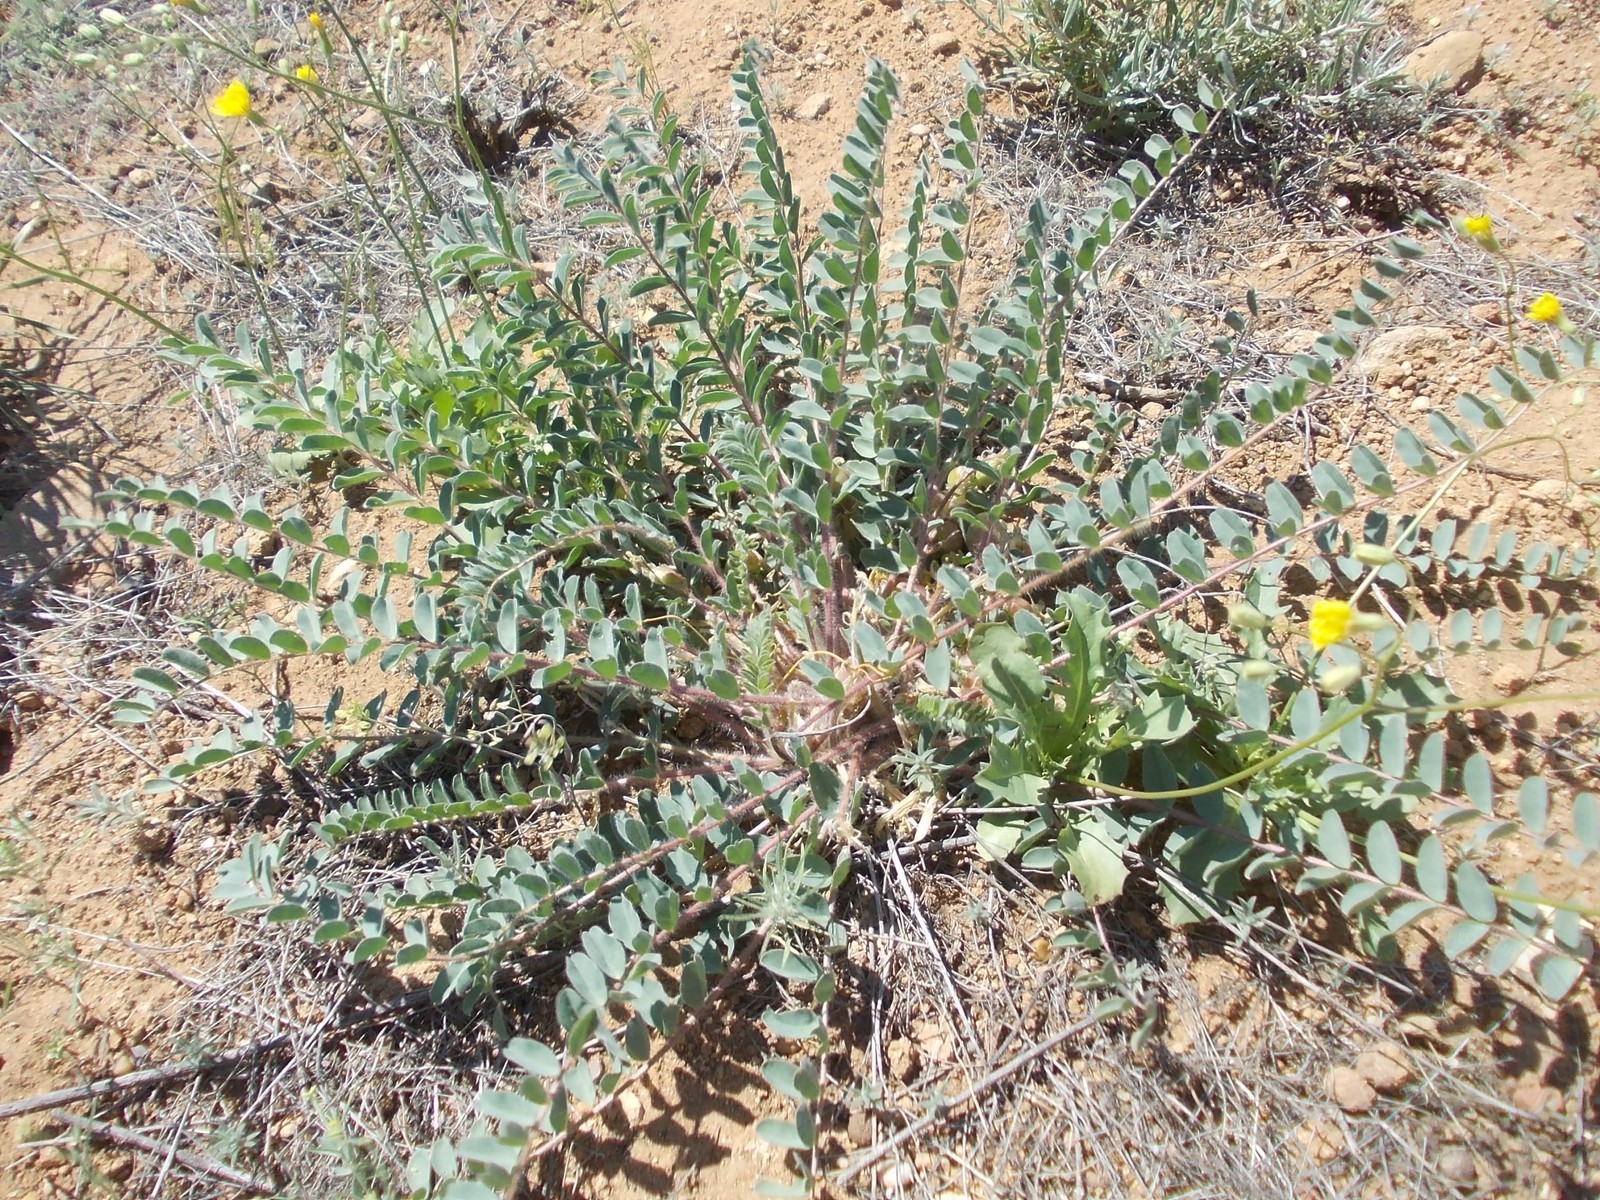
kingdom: Plantae
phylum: Tracheophyta
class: Magnoliopsida
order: Fabales
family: Fabaceae
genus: Astragalus
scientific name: Astragalus longipetalus
